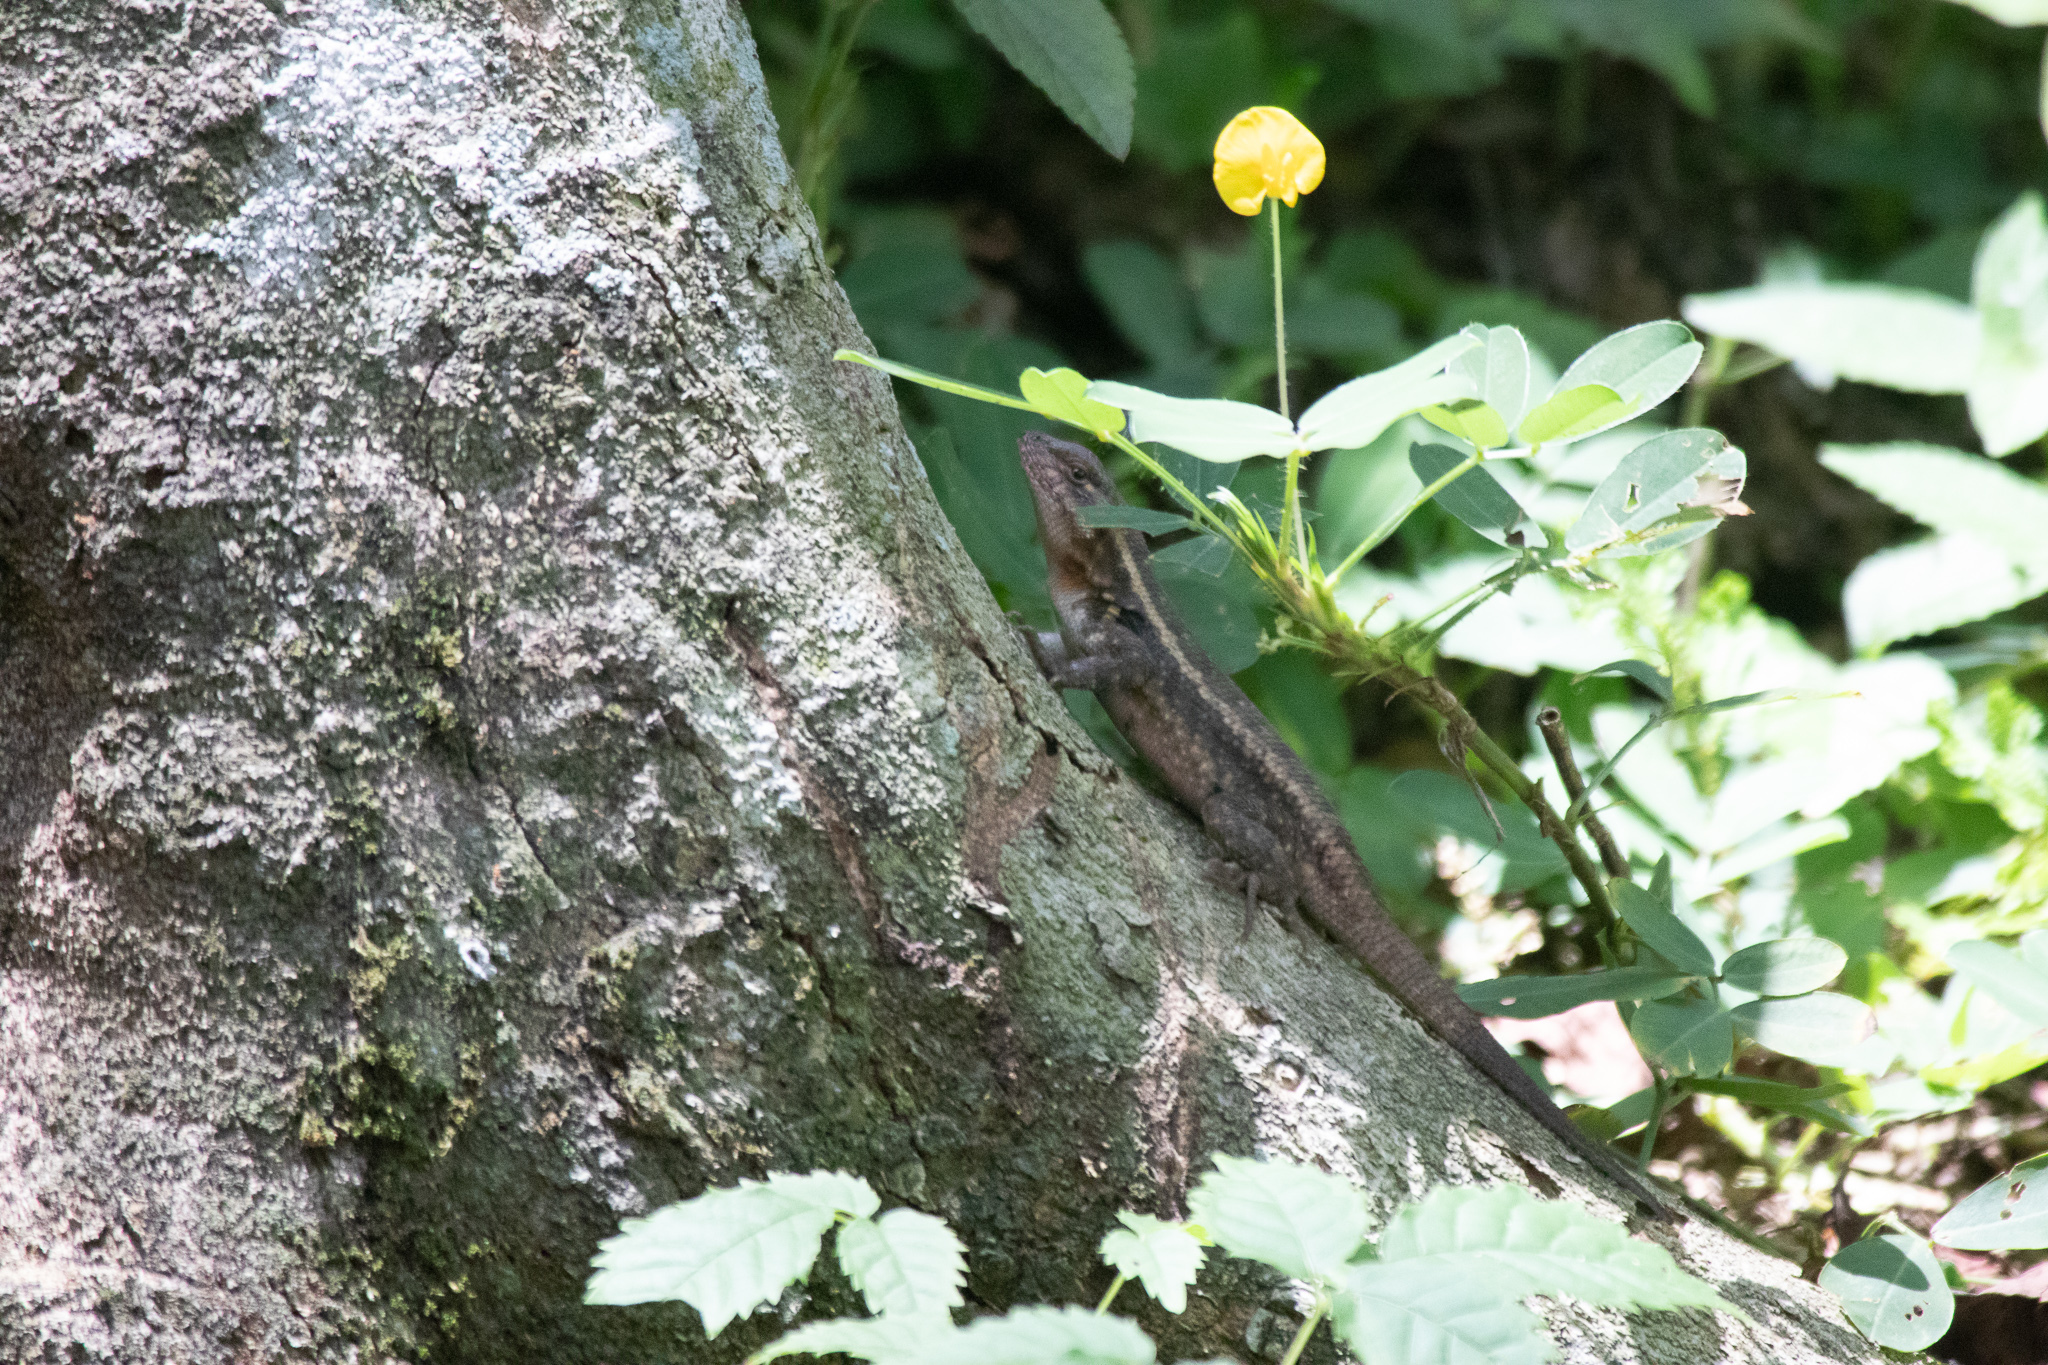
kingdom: Animalia
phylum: Chordata
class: Squamata
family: Phrynosomatidae
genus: Sceloporus
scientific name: Sceloporus variabilis
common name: Rosebelly lizard
